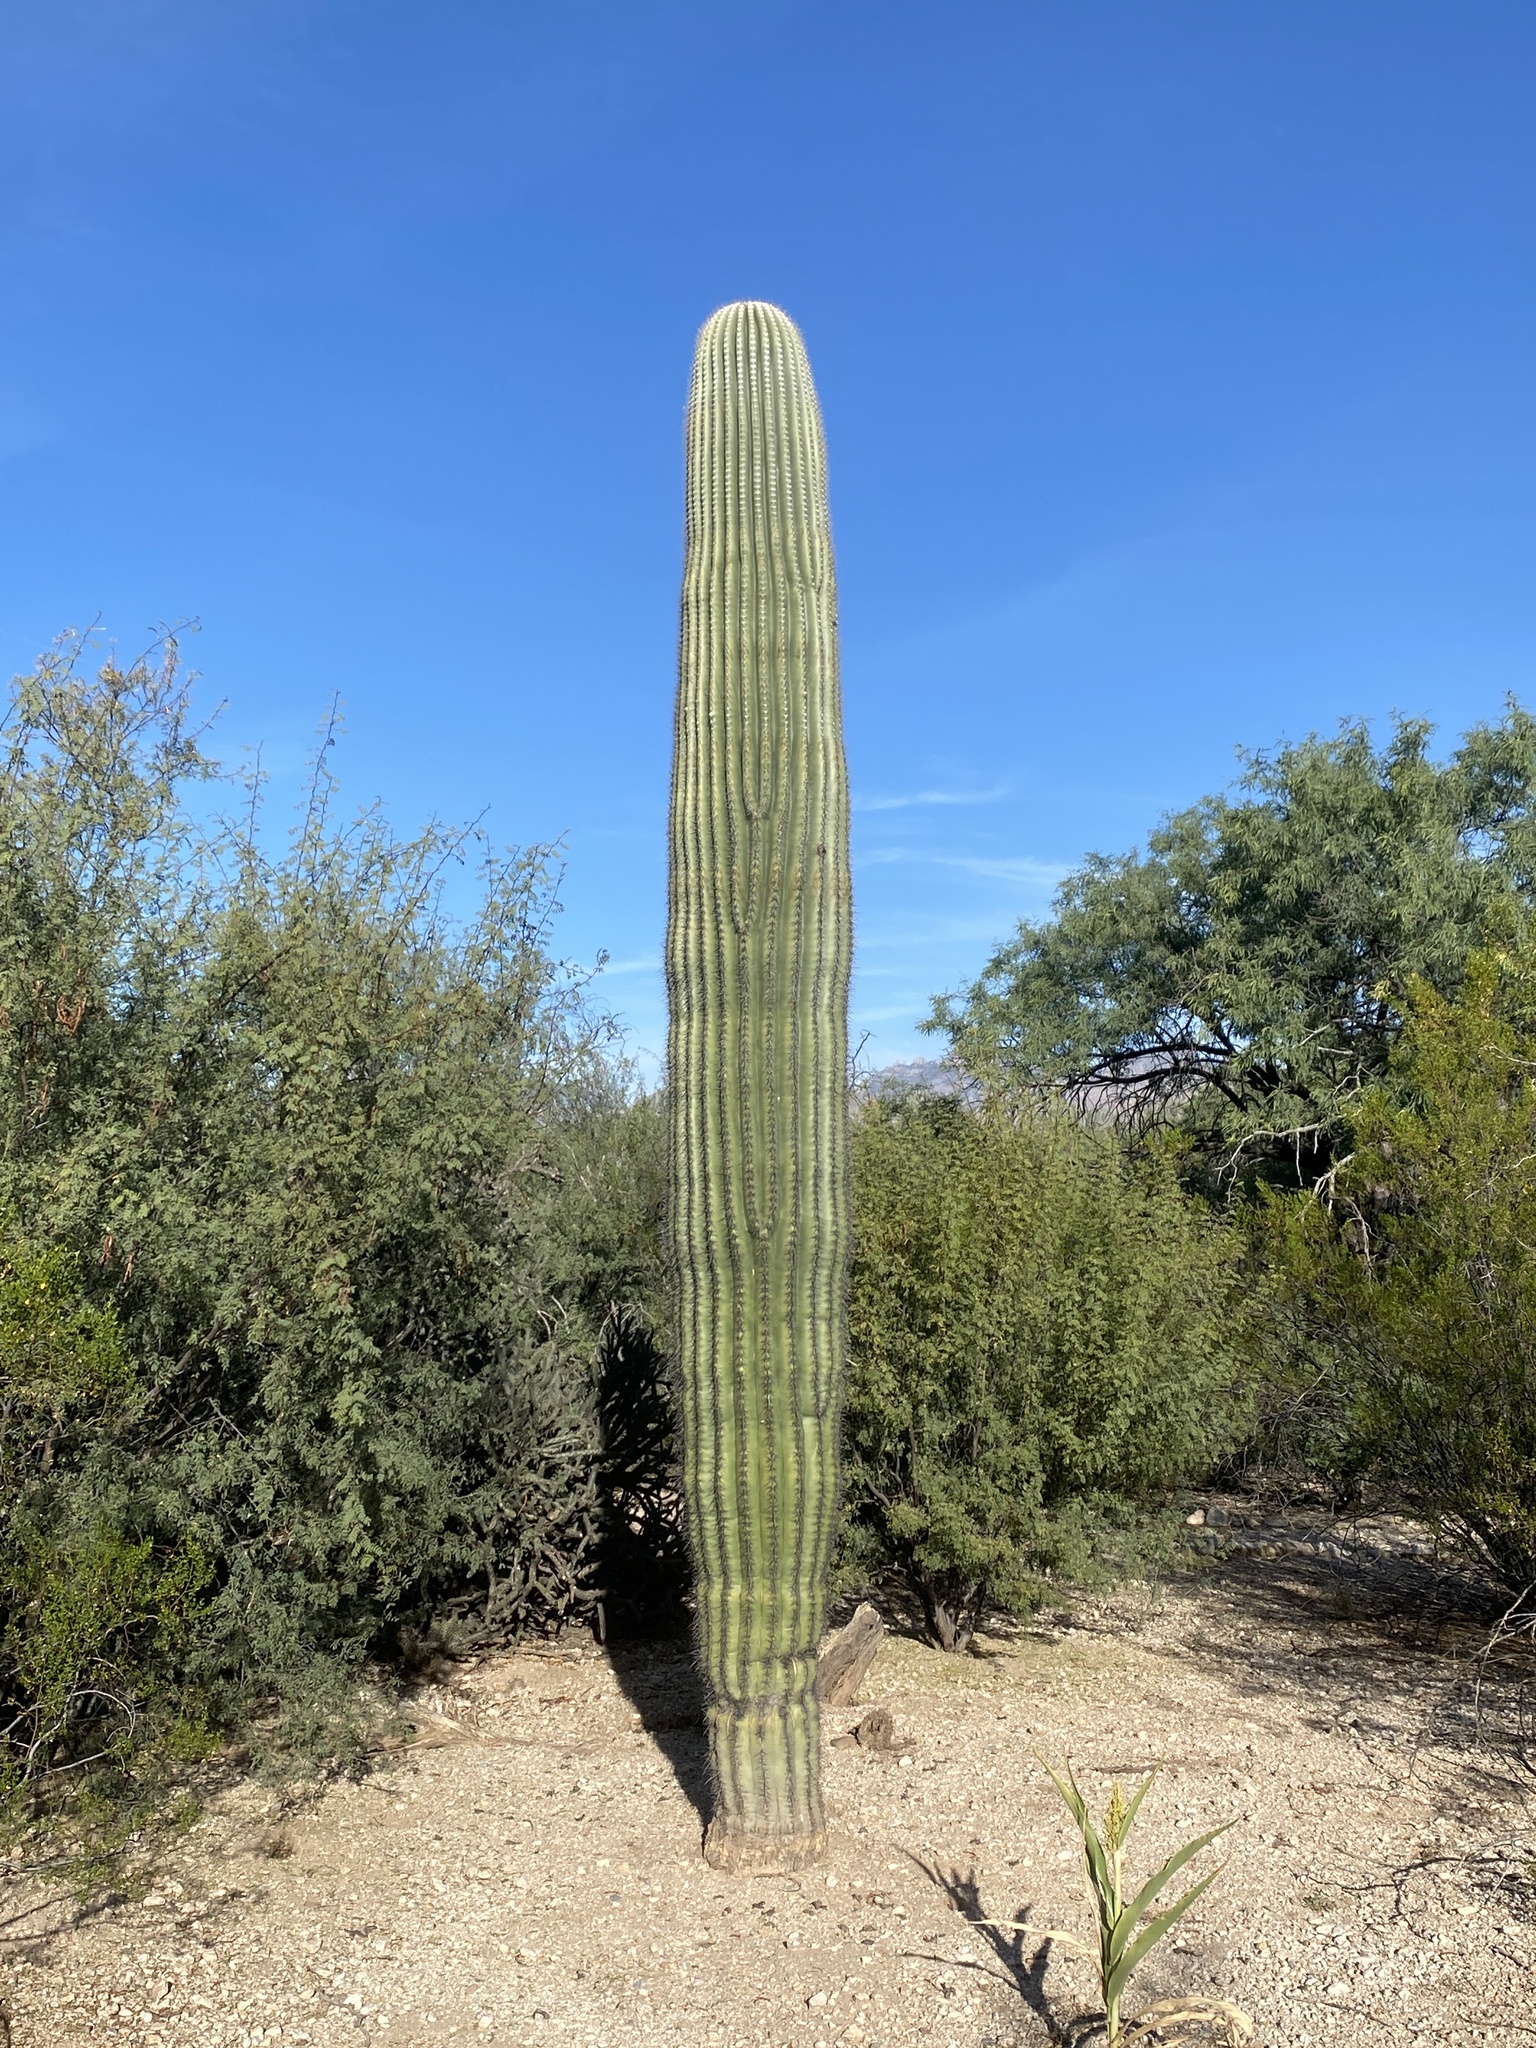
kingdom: Plantae
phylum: Tracheophyta
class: Magnoliopsida
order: Caryophyllales
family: Cactaceae
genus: Carnegiea
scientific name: Carnegiea gigantea
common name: Saguaro
